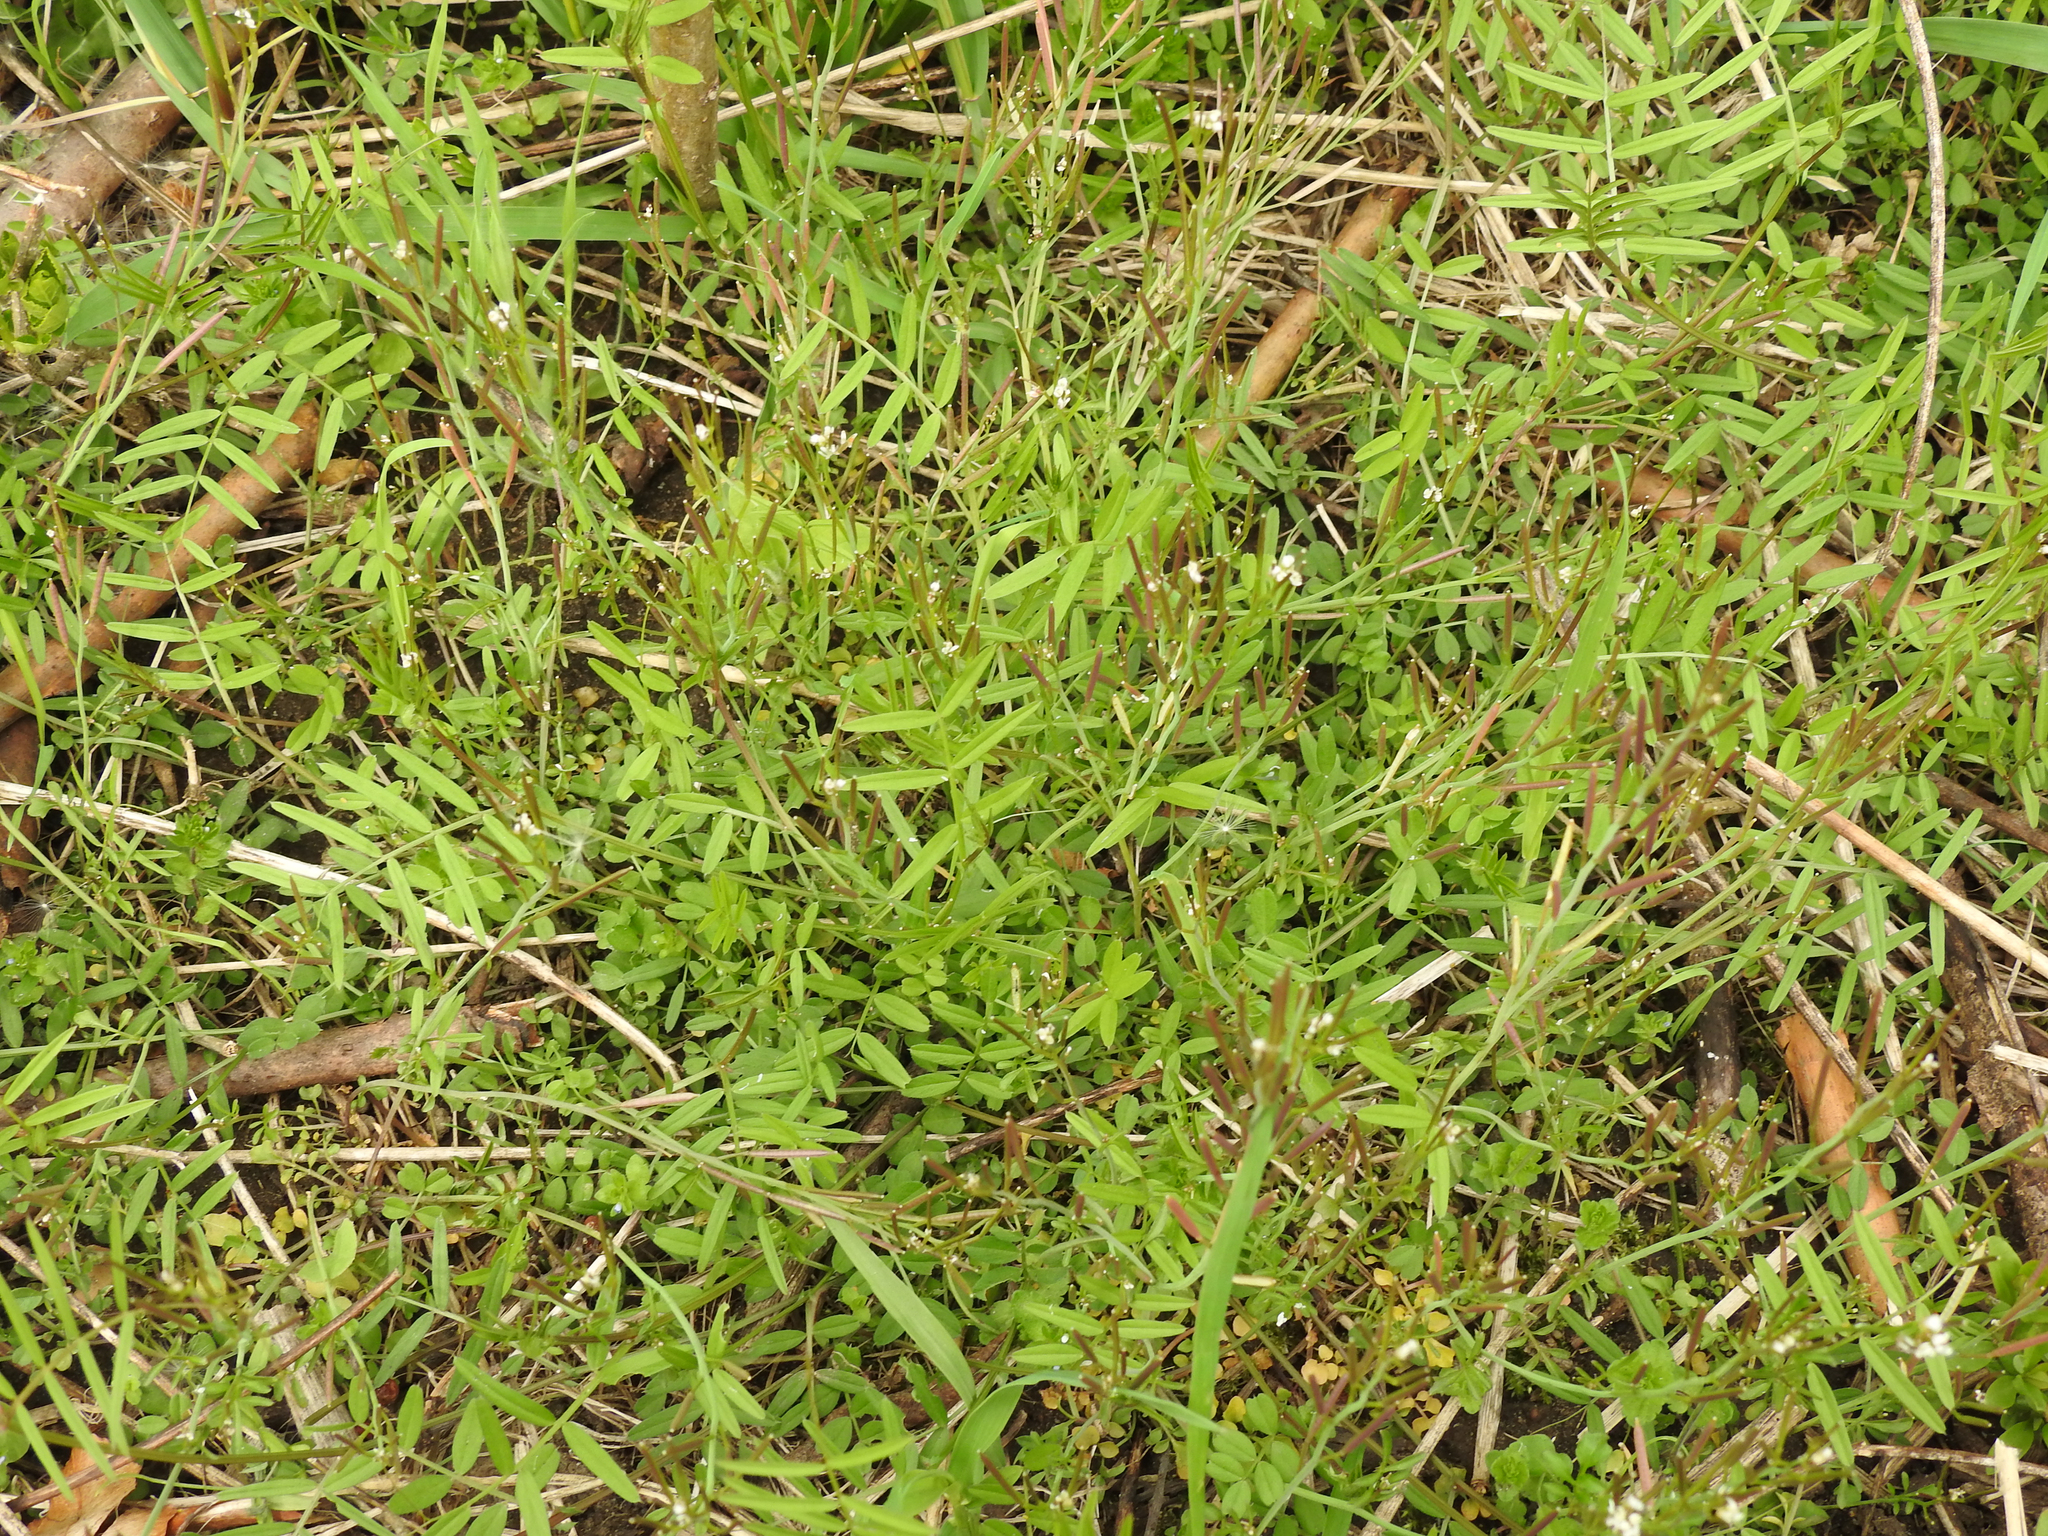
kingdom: Plantae
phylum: Tracheophyta
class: Magnoliopsida
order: Brassicales
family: Brassicaceae
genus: Cardamine
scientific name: Cardamine hirsuta
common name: Hairy bittercress
